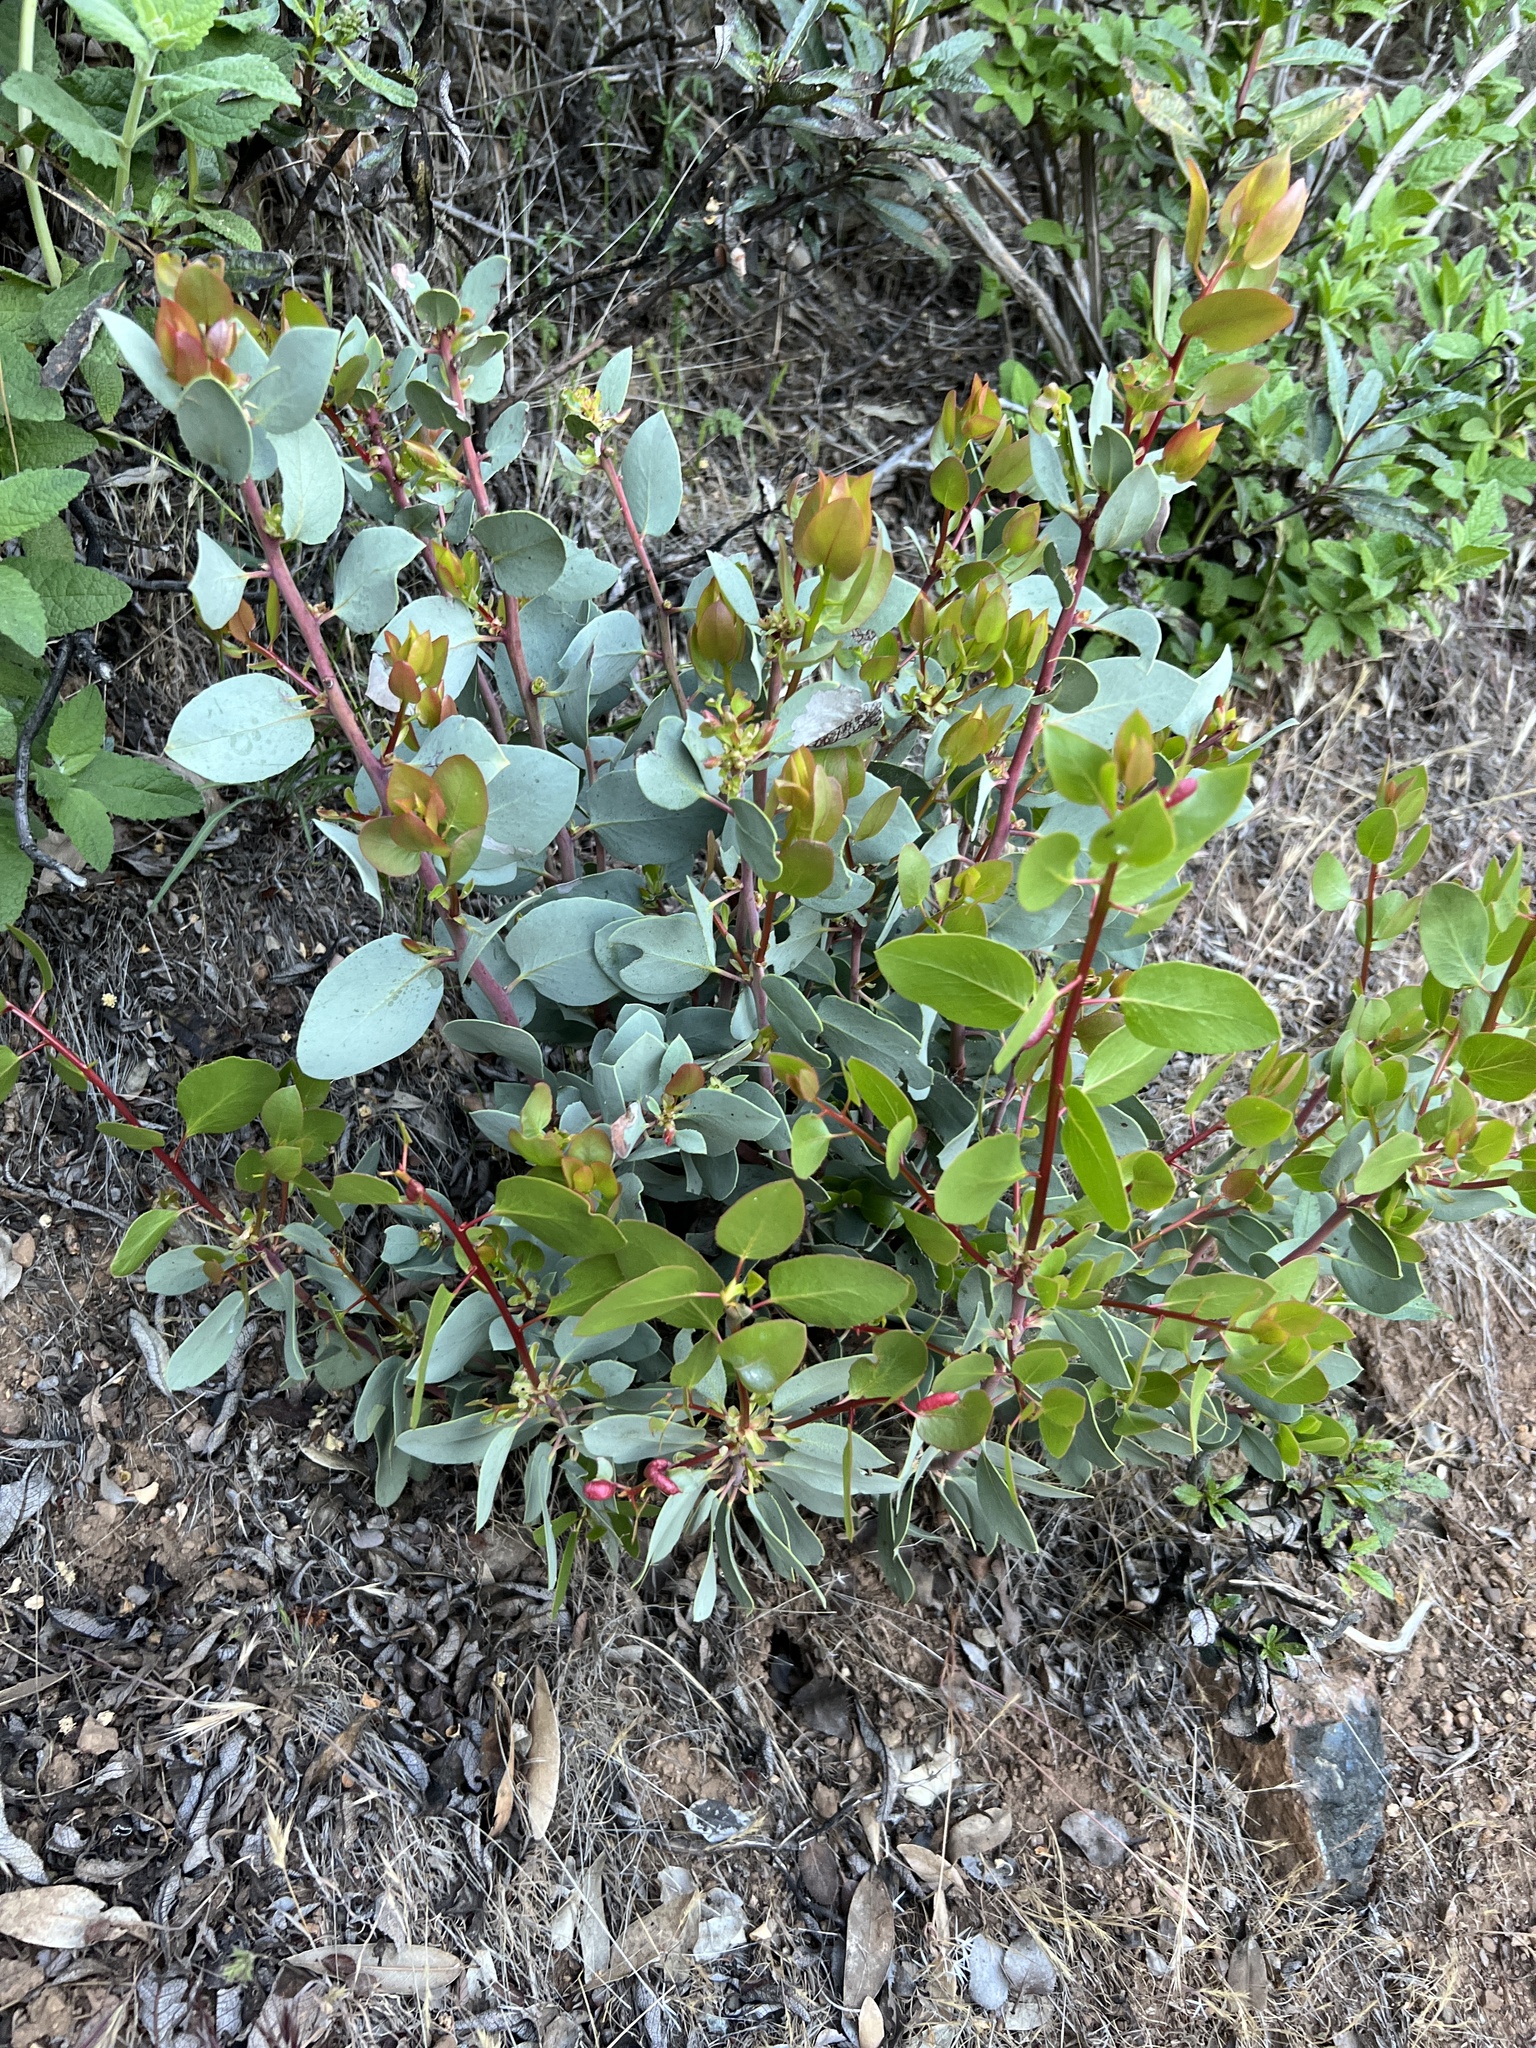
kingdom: Plantae
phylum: Tracheophyta
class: Magnoliopsida
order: Ericales
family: Ericaceae
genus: Arctostaphylos
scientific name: Arctostaphylos glauca
